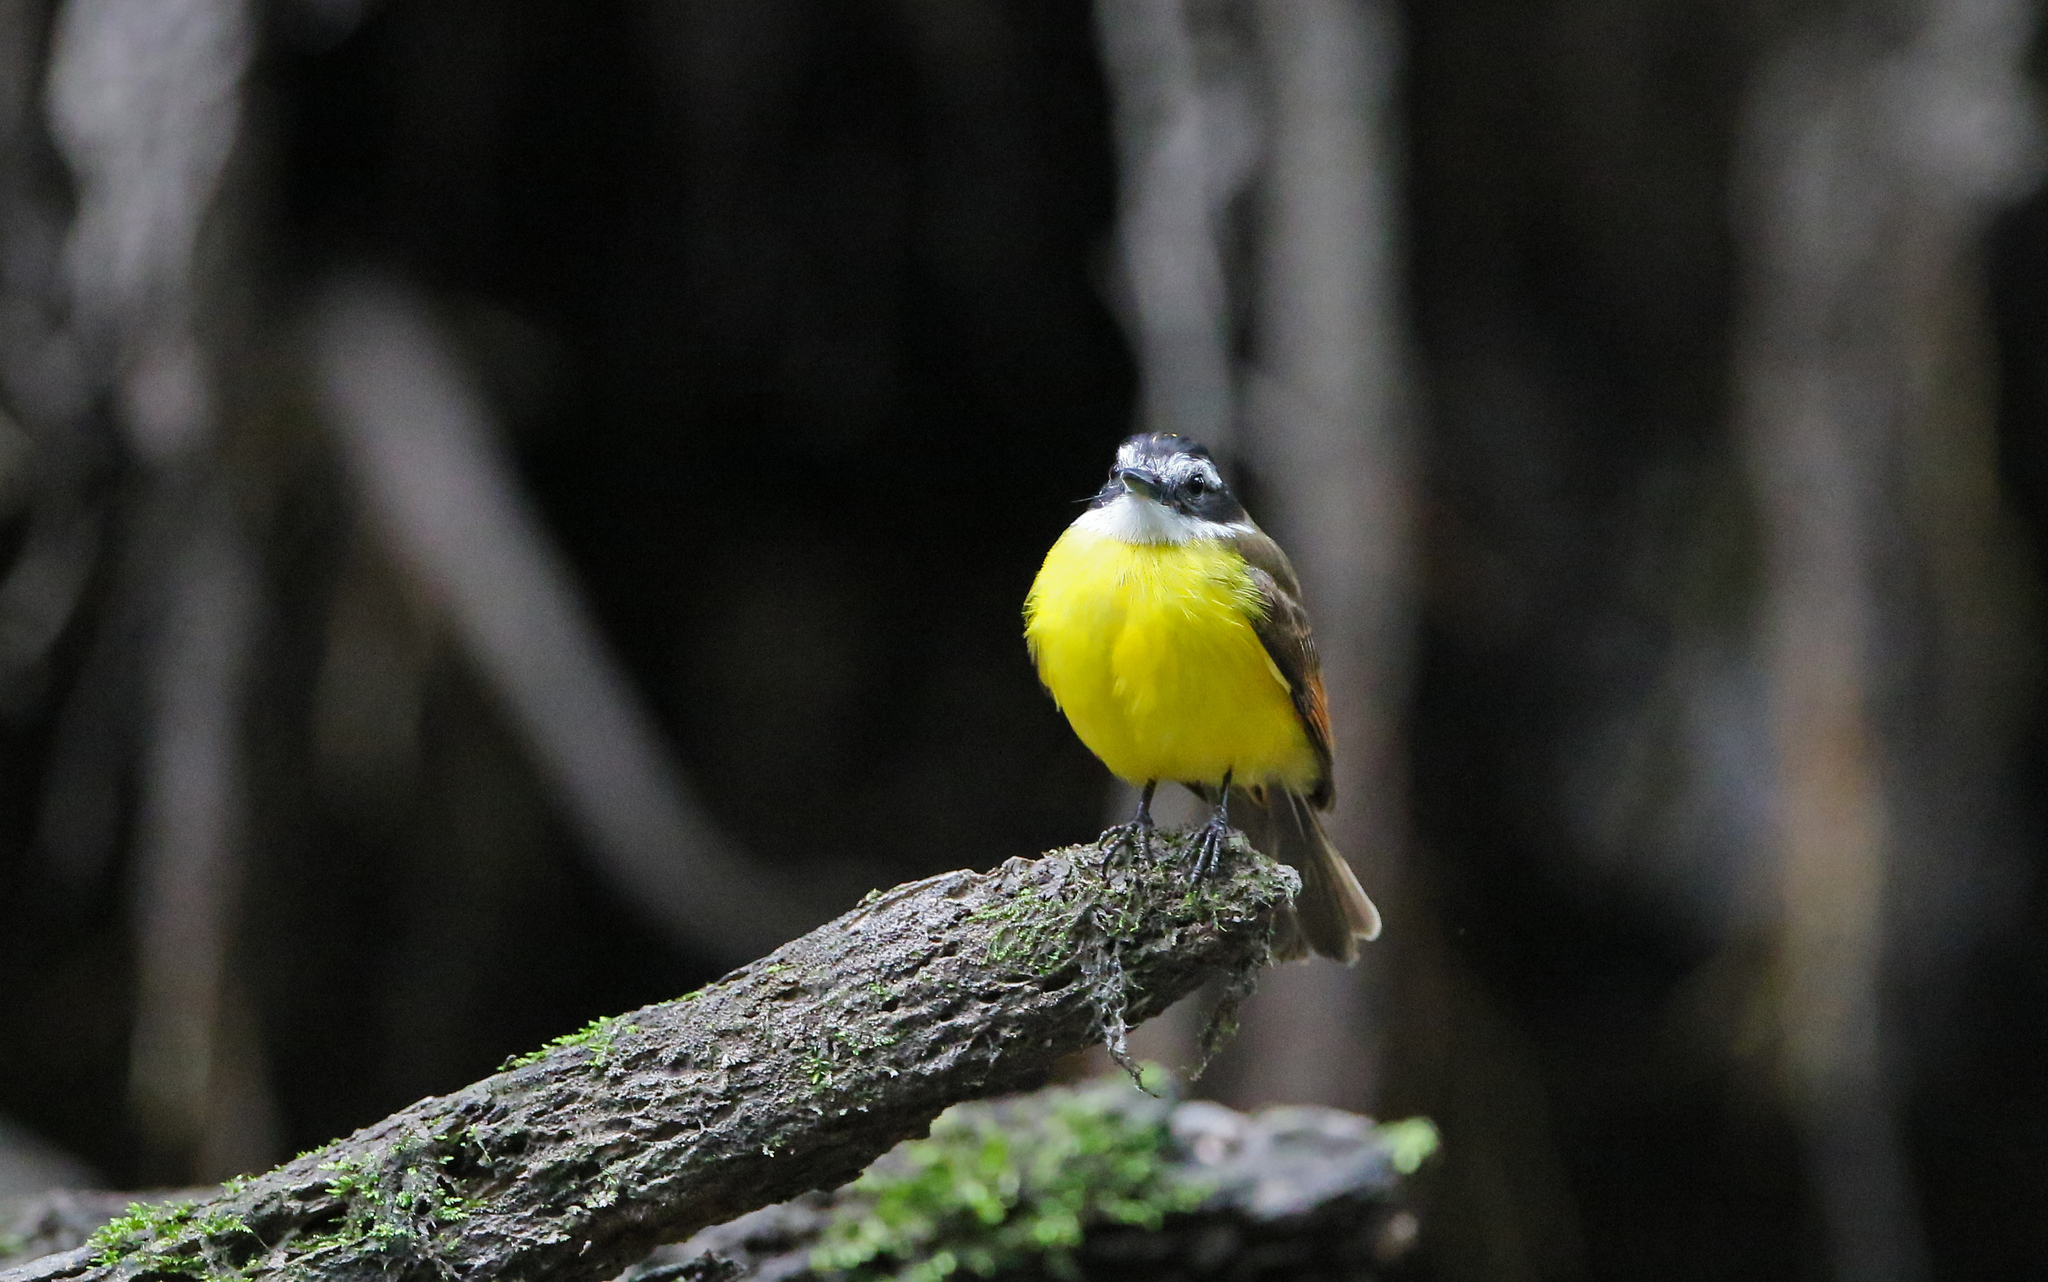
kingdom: Animalia
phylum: Chordata
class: Aves
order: Passeriformes
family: Tyrannidae
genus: Pitangus
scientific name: Pitangus lictor
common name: Lesser kiskadee
